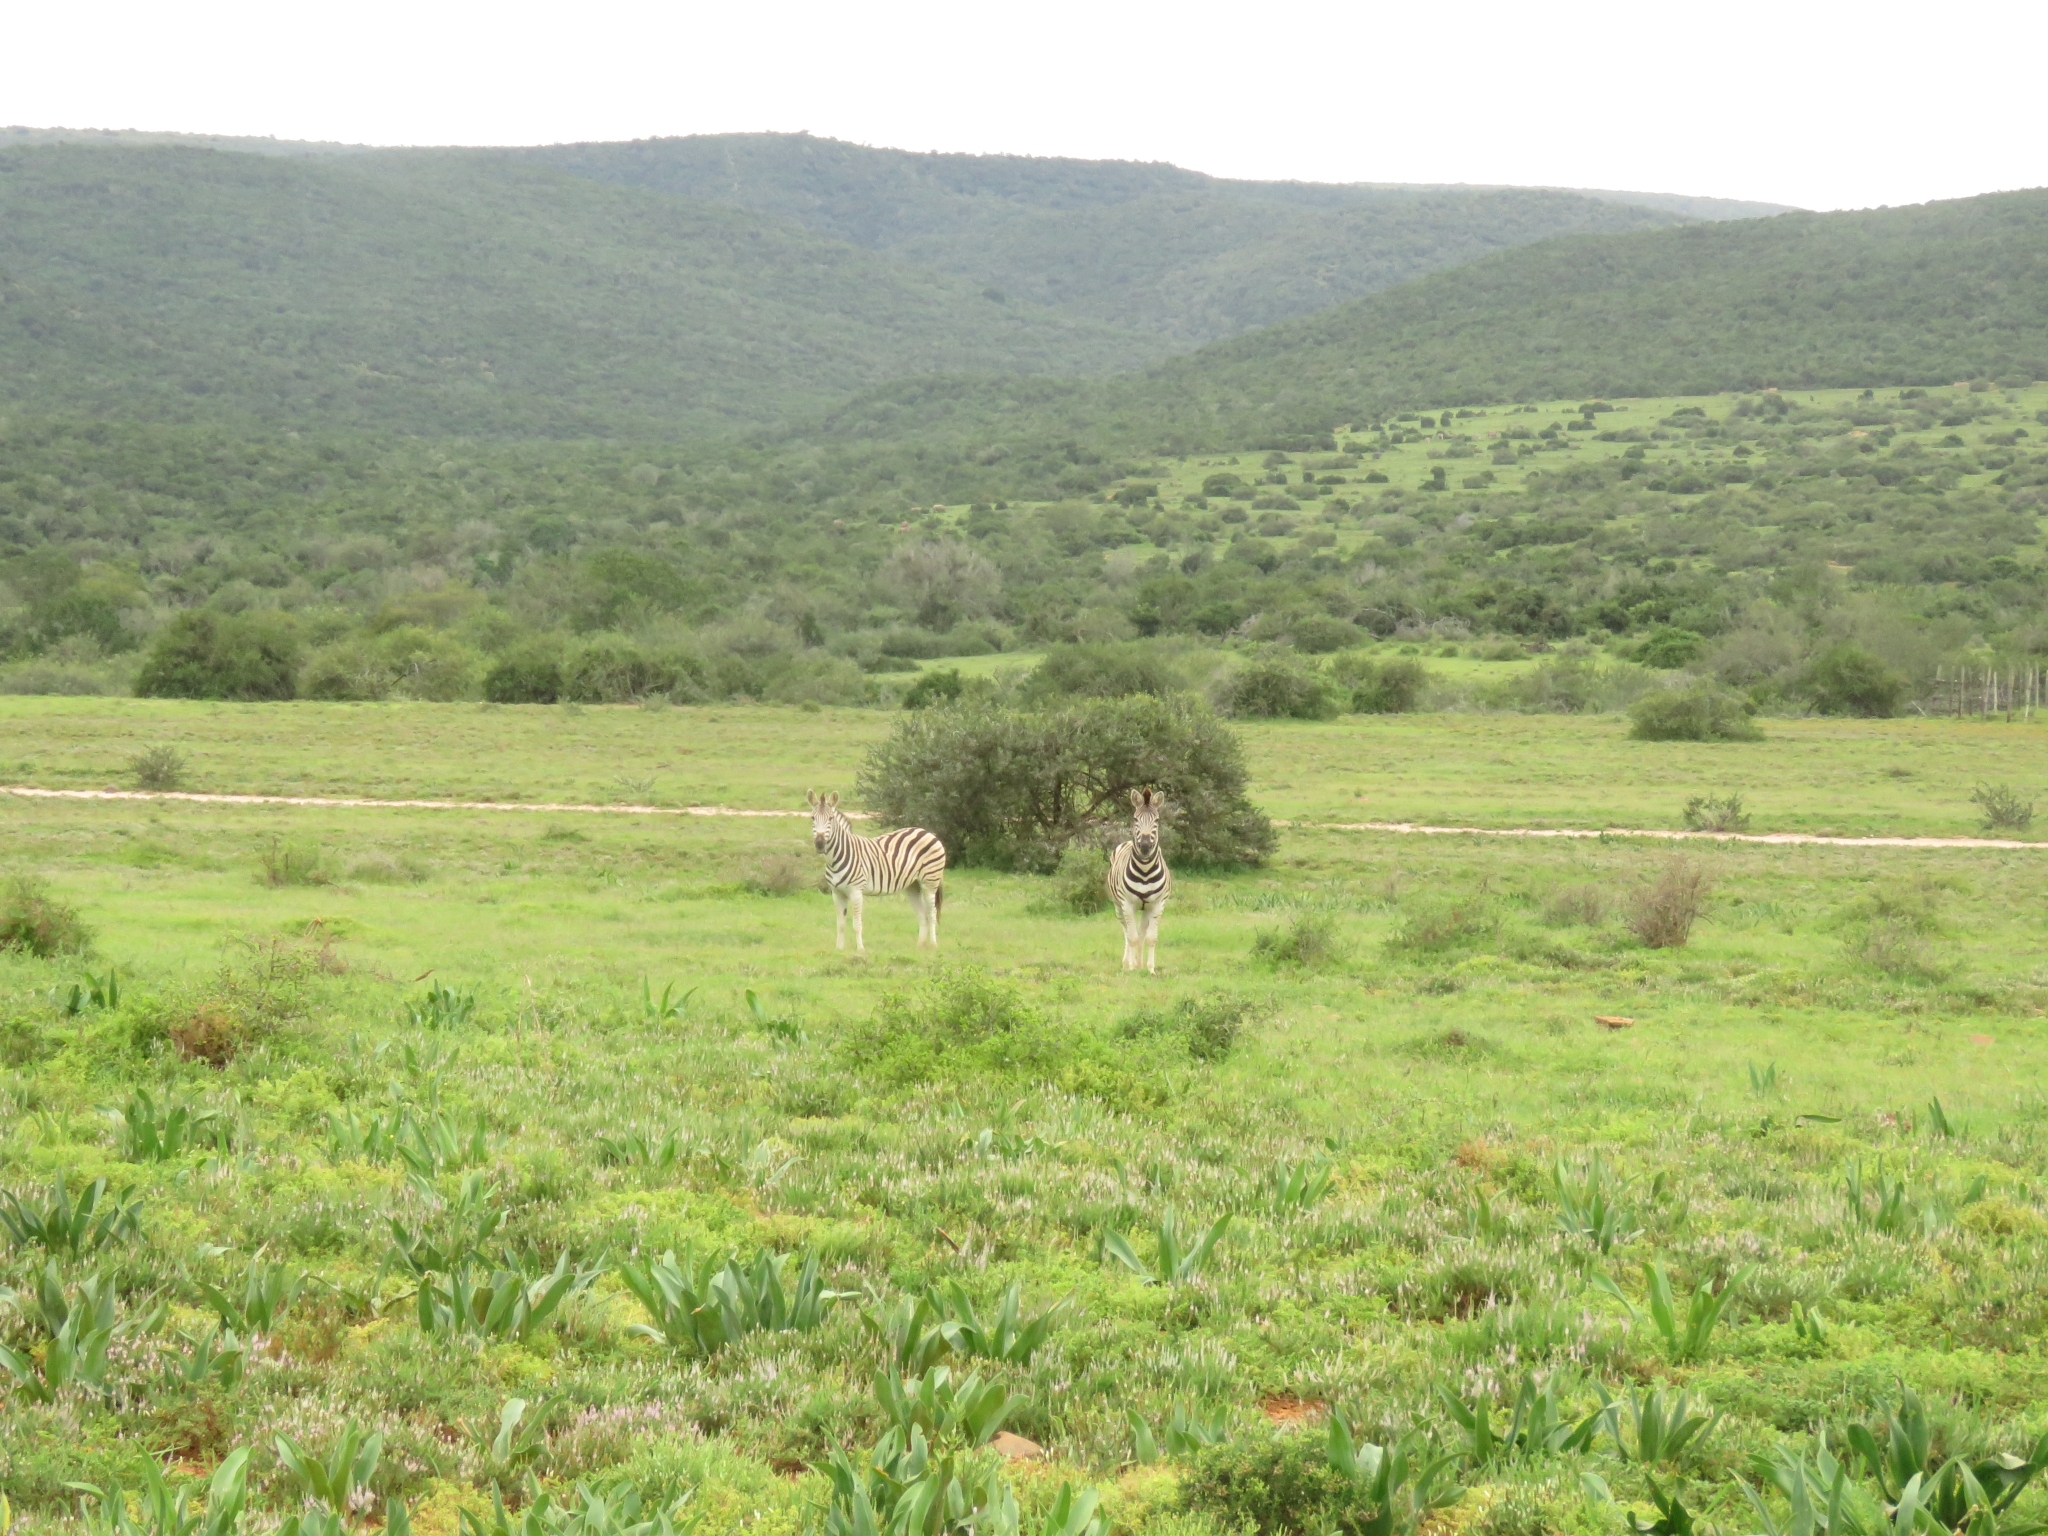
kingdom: Animalia
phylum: Chordata
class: Mammalia
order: Perissodactyla
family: Equidae
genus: Equus
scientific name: Equus quagga
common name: Plains zebra
